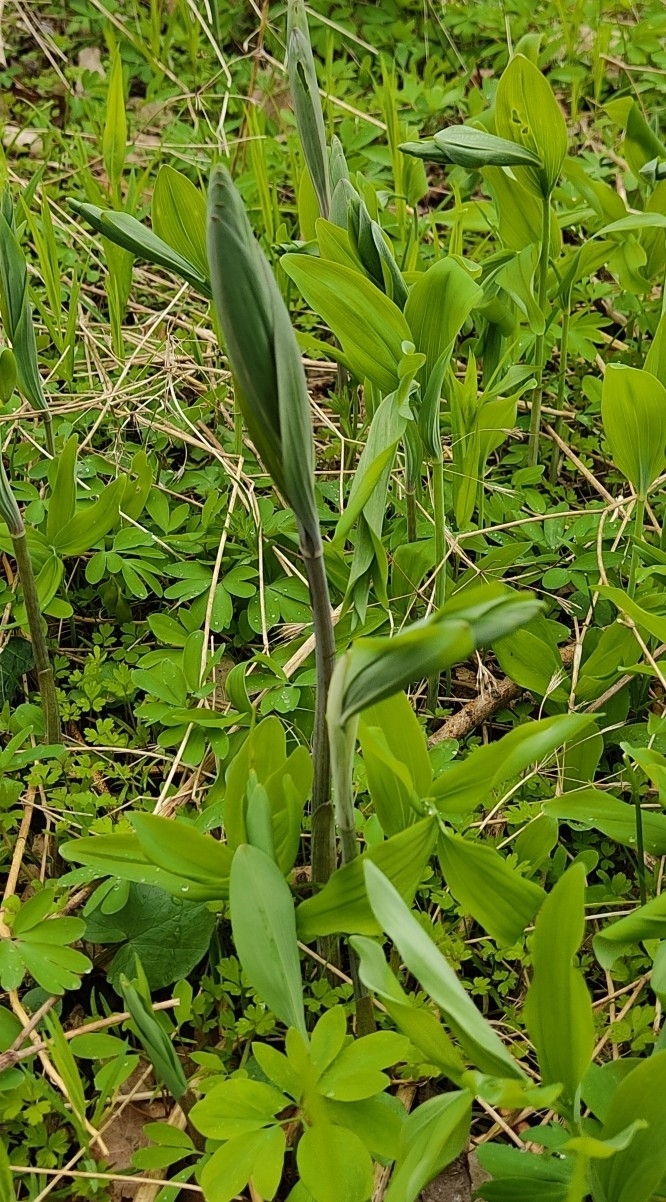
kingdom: Plantae
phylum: Tracheophyta
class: Liliopsida
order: Asparagales
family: Asparagaceae
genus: Polygonatum
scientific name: Polygonatum multiflorum
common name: Solomon's-seal
